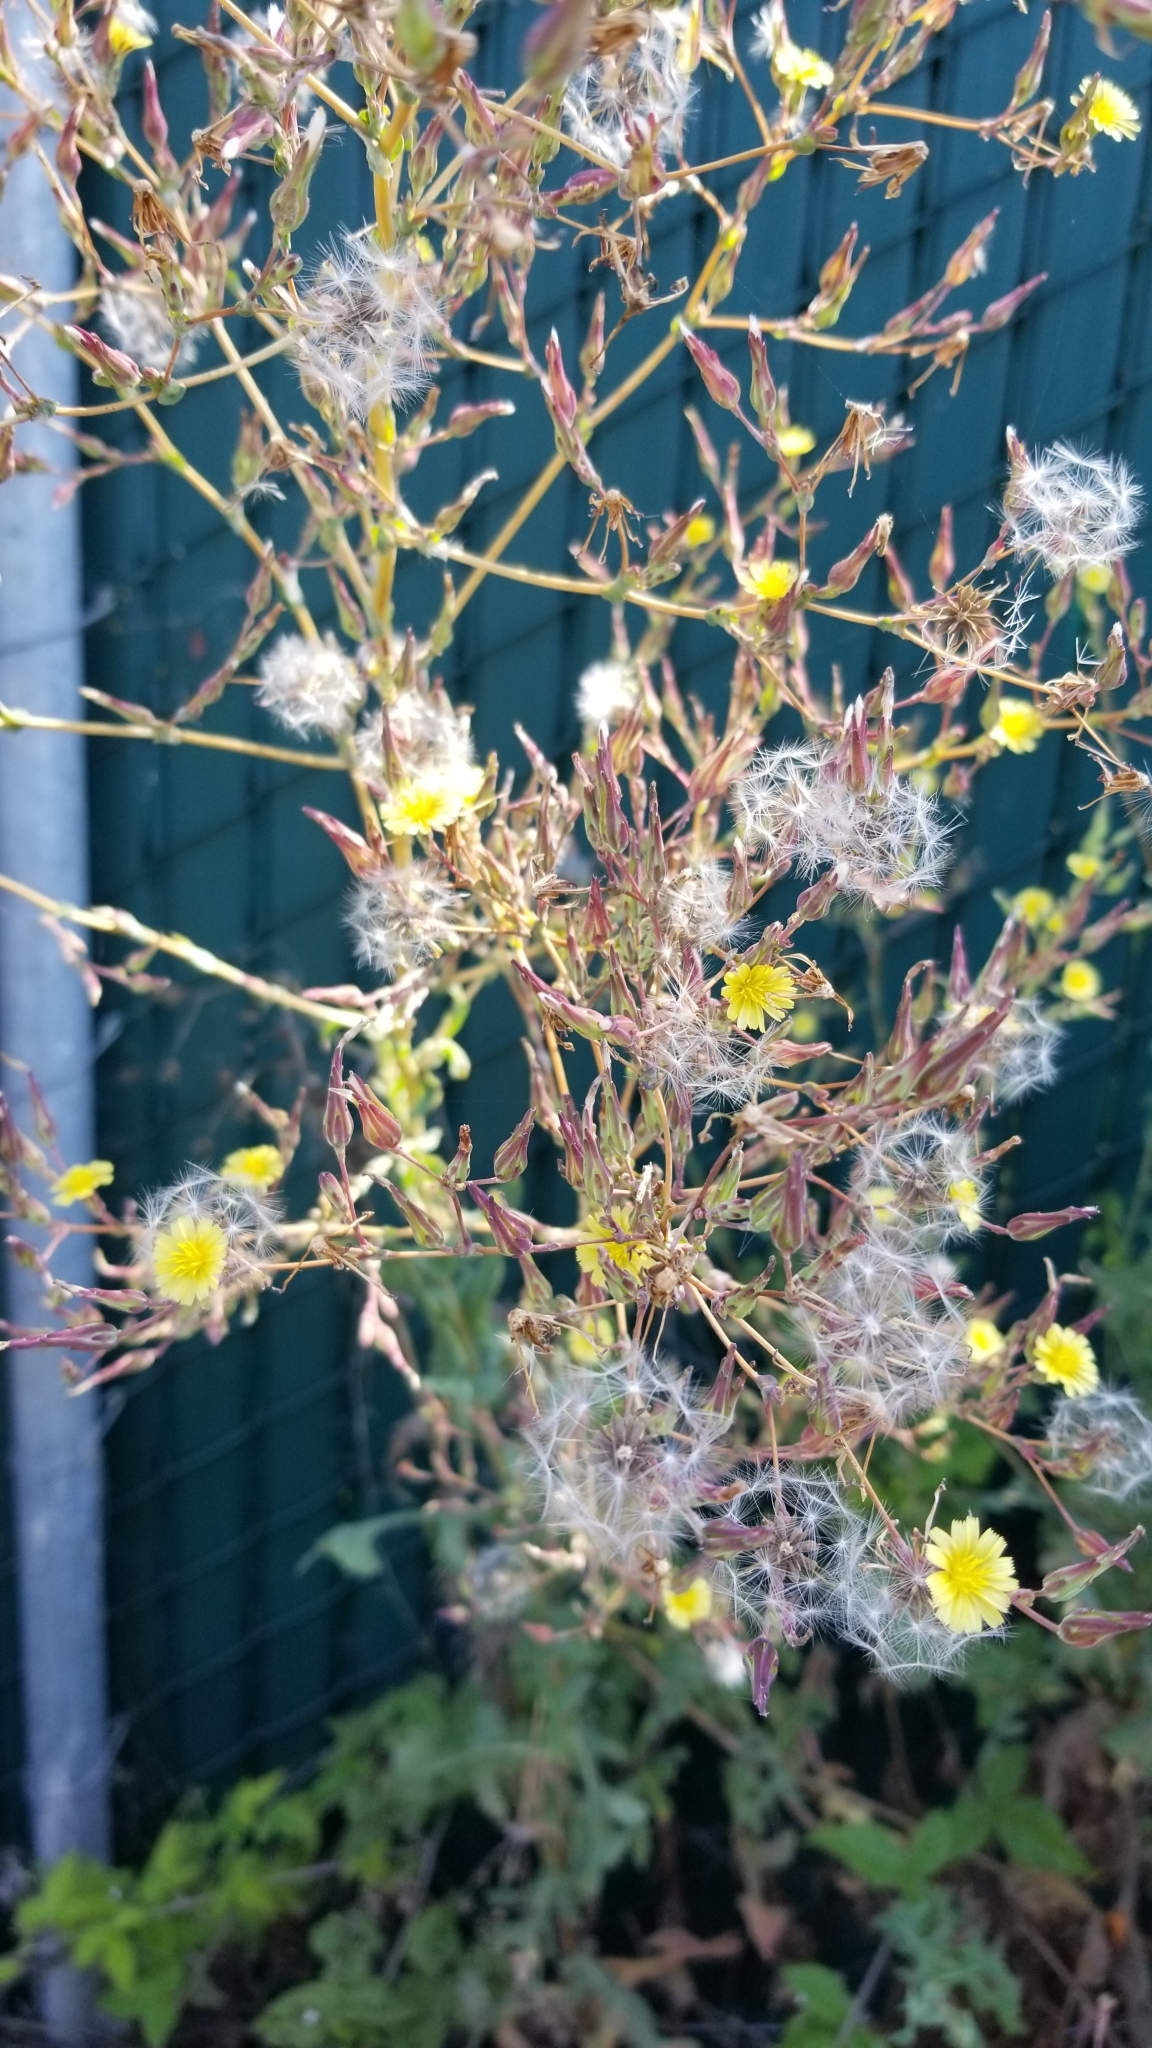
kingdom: Plantae
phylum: Tracheophyta
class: Magnoliopsida
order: Asterales
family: Asteraceae
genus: Lactuca
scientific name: Lactuca serriola
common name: Prickly lettuce
